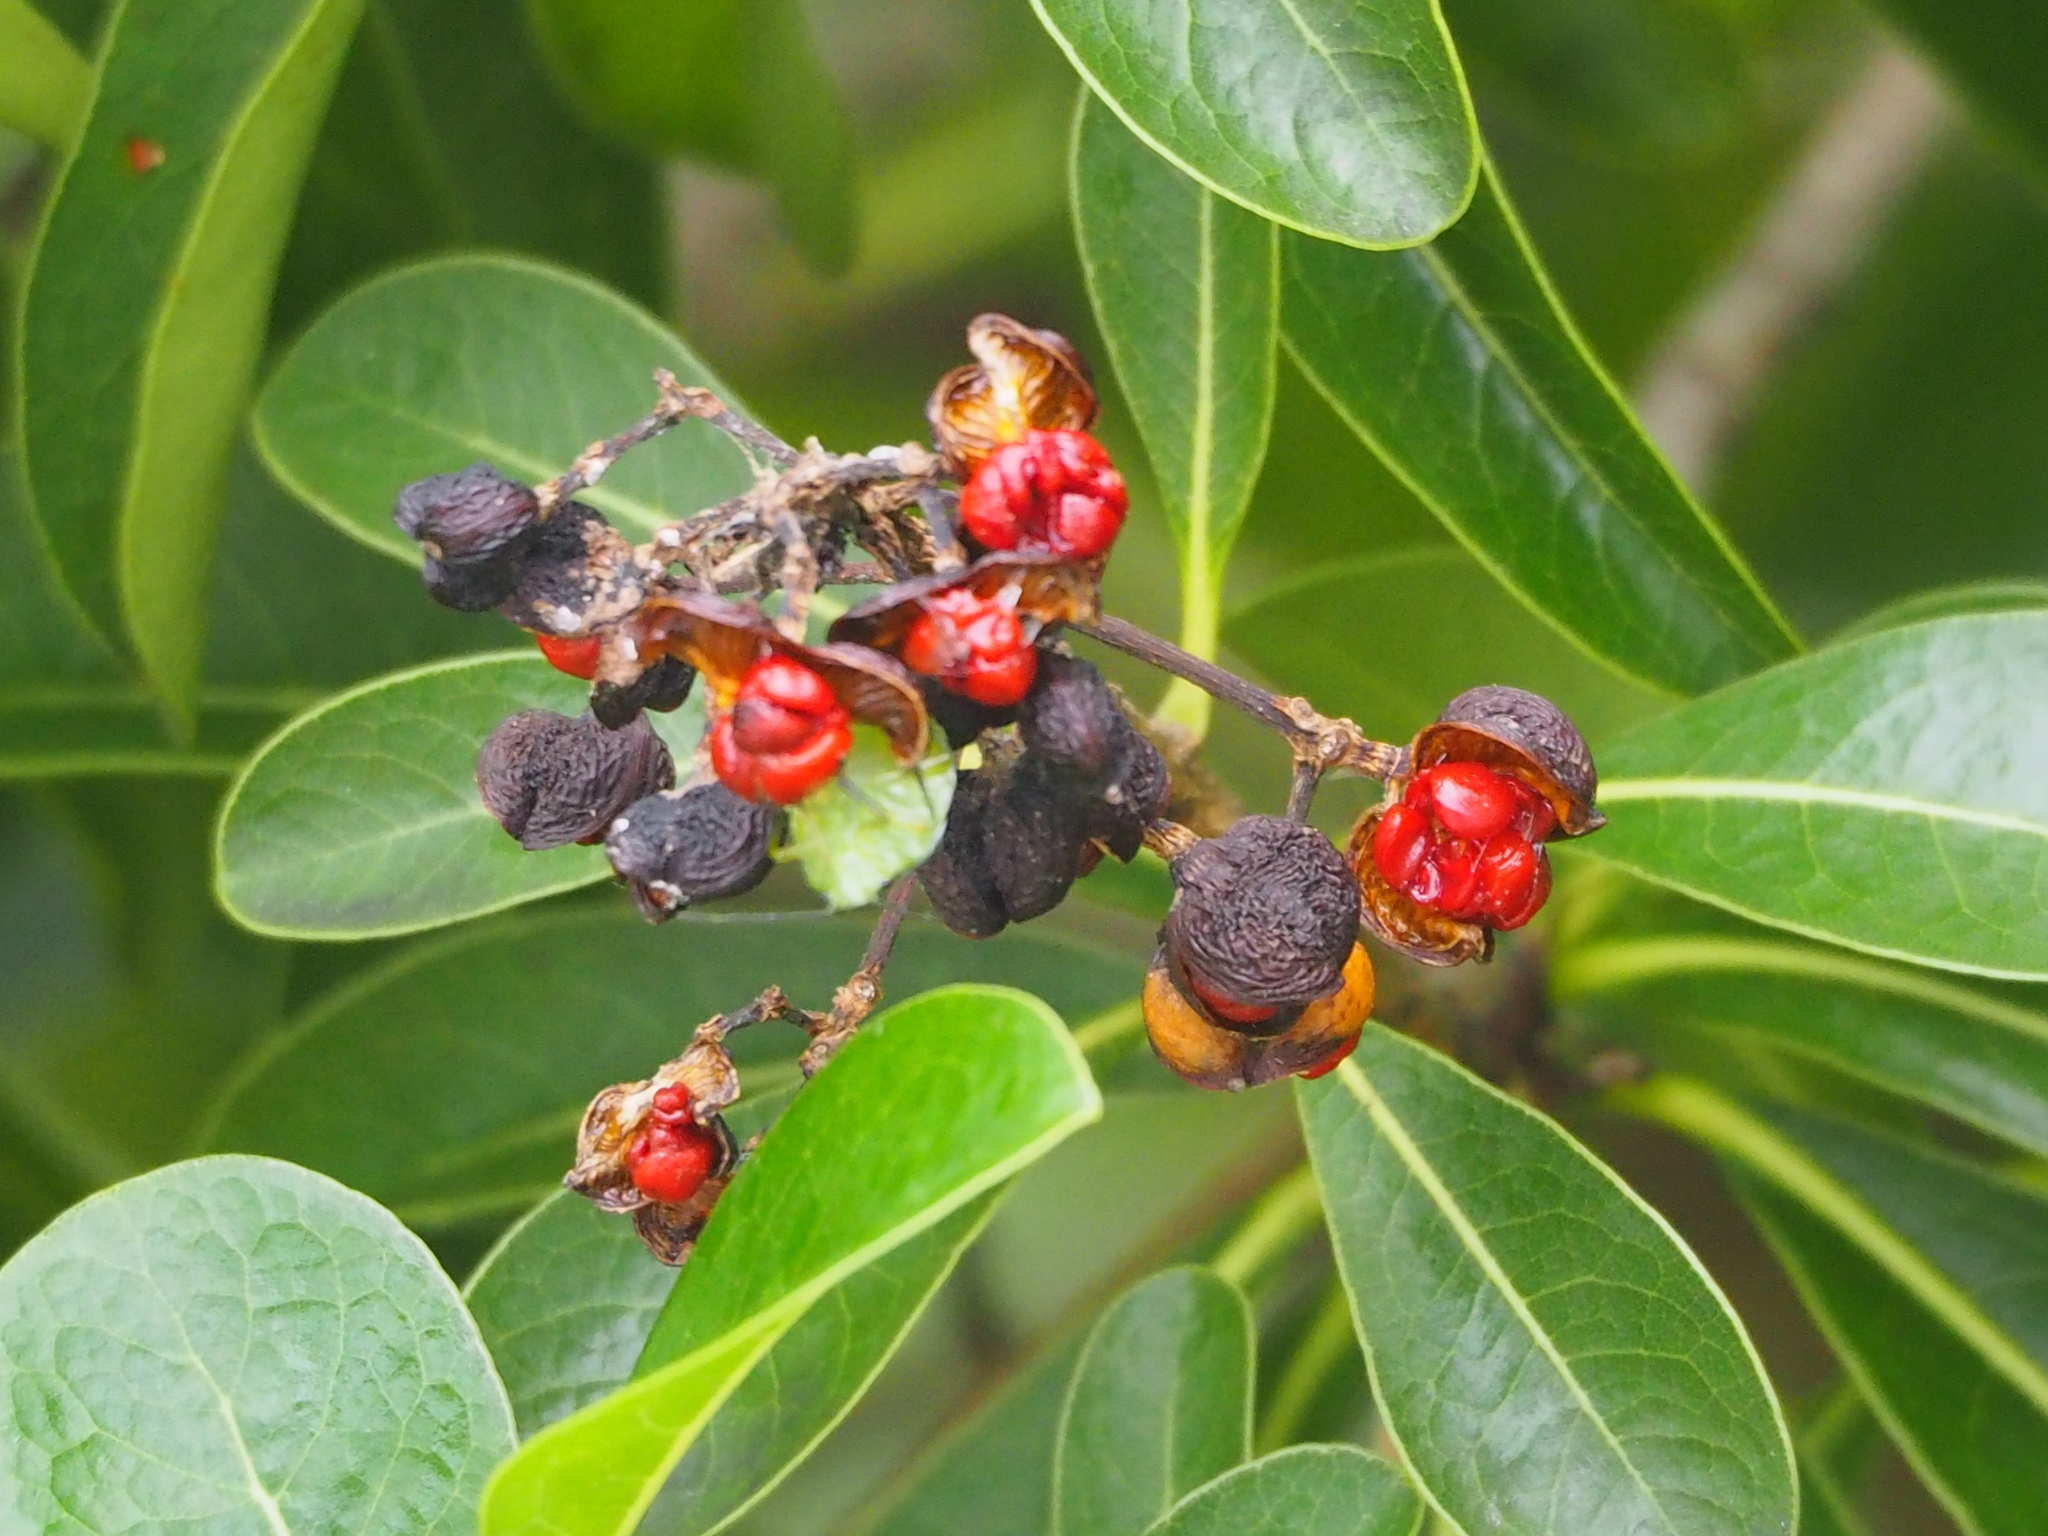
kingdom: Plantae
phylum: Tracheophyta
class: Magnoliopsida
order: Apiales
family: Pittosporaceae
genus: Pittosporum
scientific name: Pittosporum pentandrum
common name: Taiwanese cheesewood
